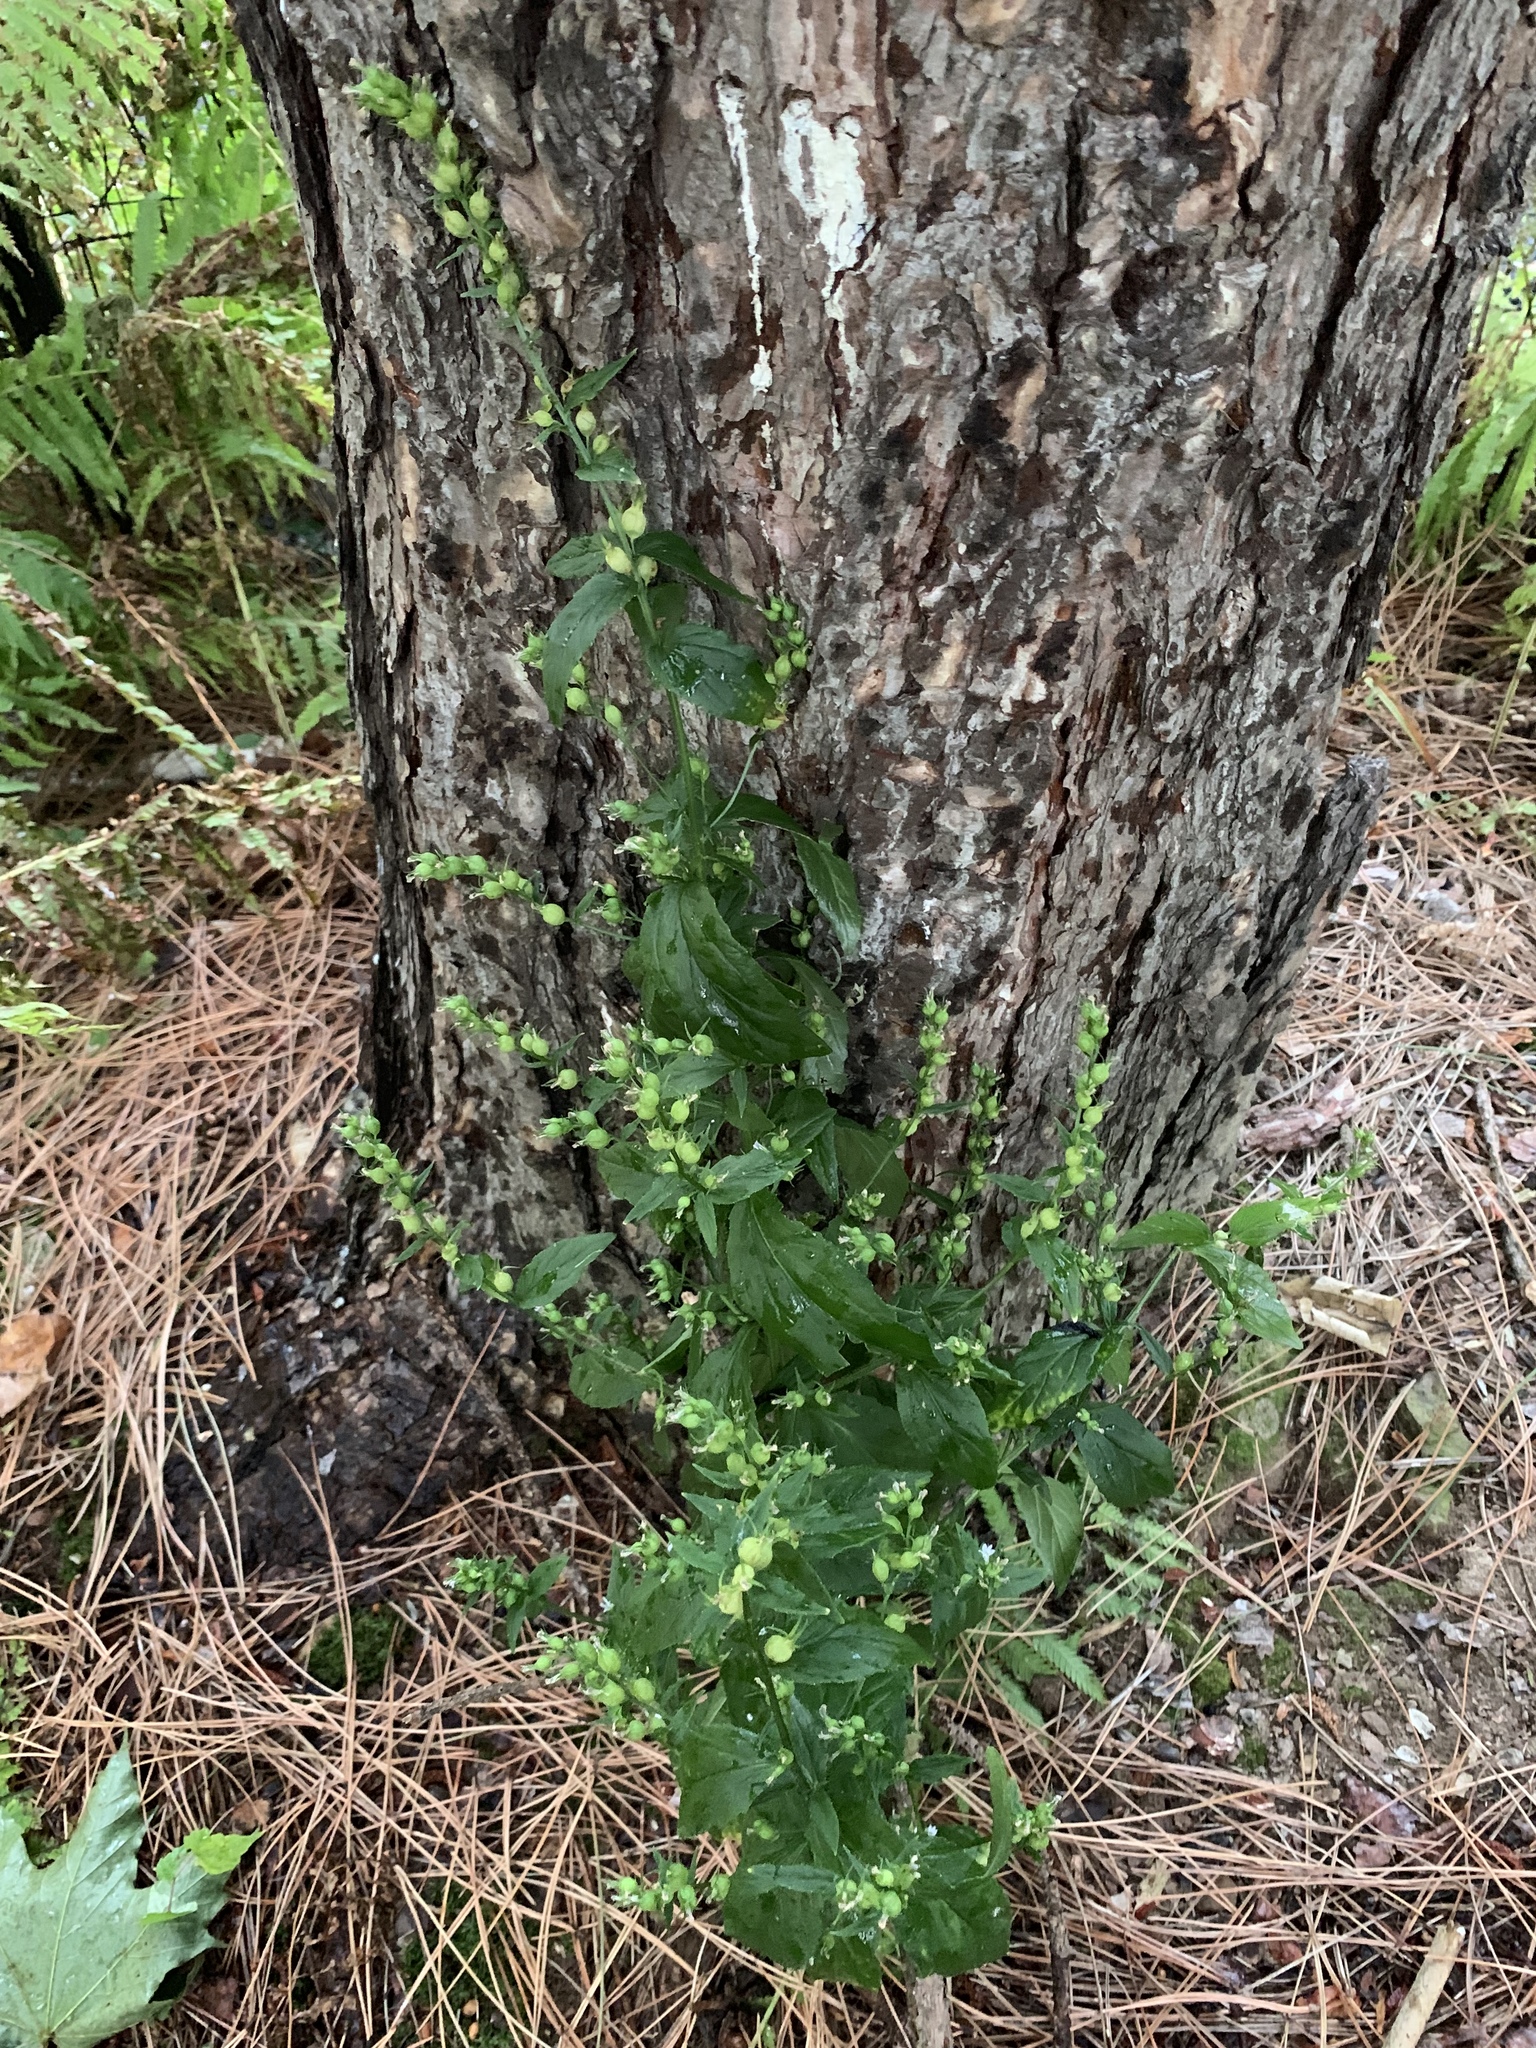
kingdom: Plantae
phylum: Tracheophyta
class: Magnoliopsida
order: Asterales
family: Campanulaceae
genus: Lobelia
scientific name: Lobelia inflata
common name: Indian tobacco
